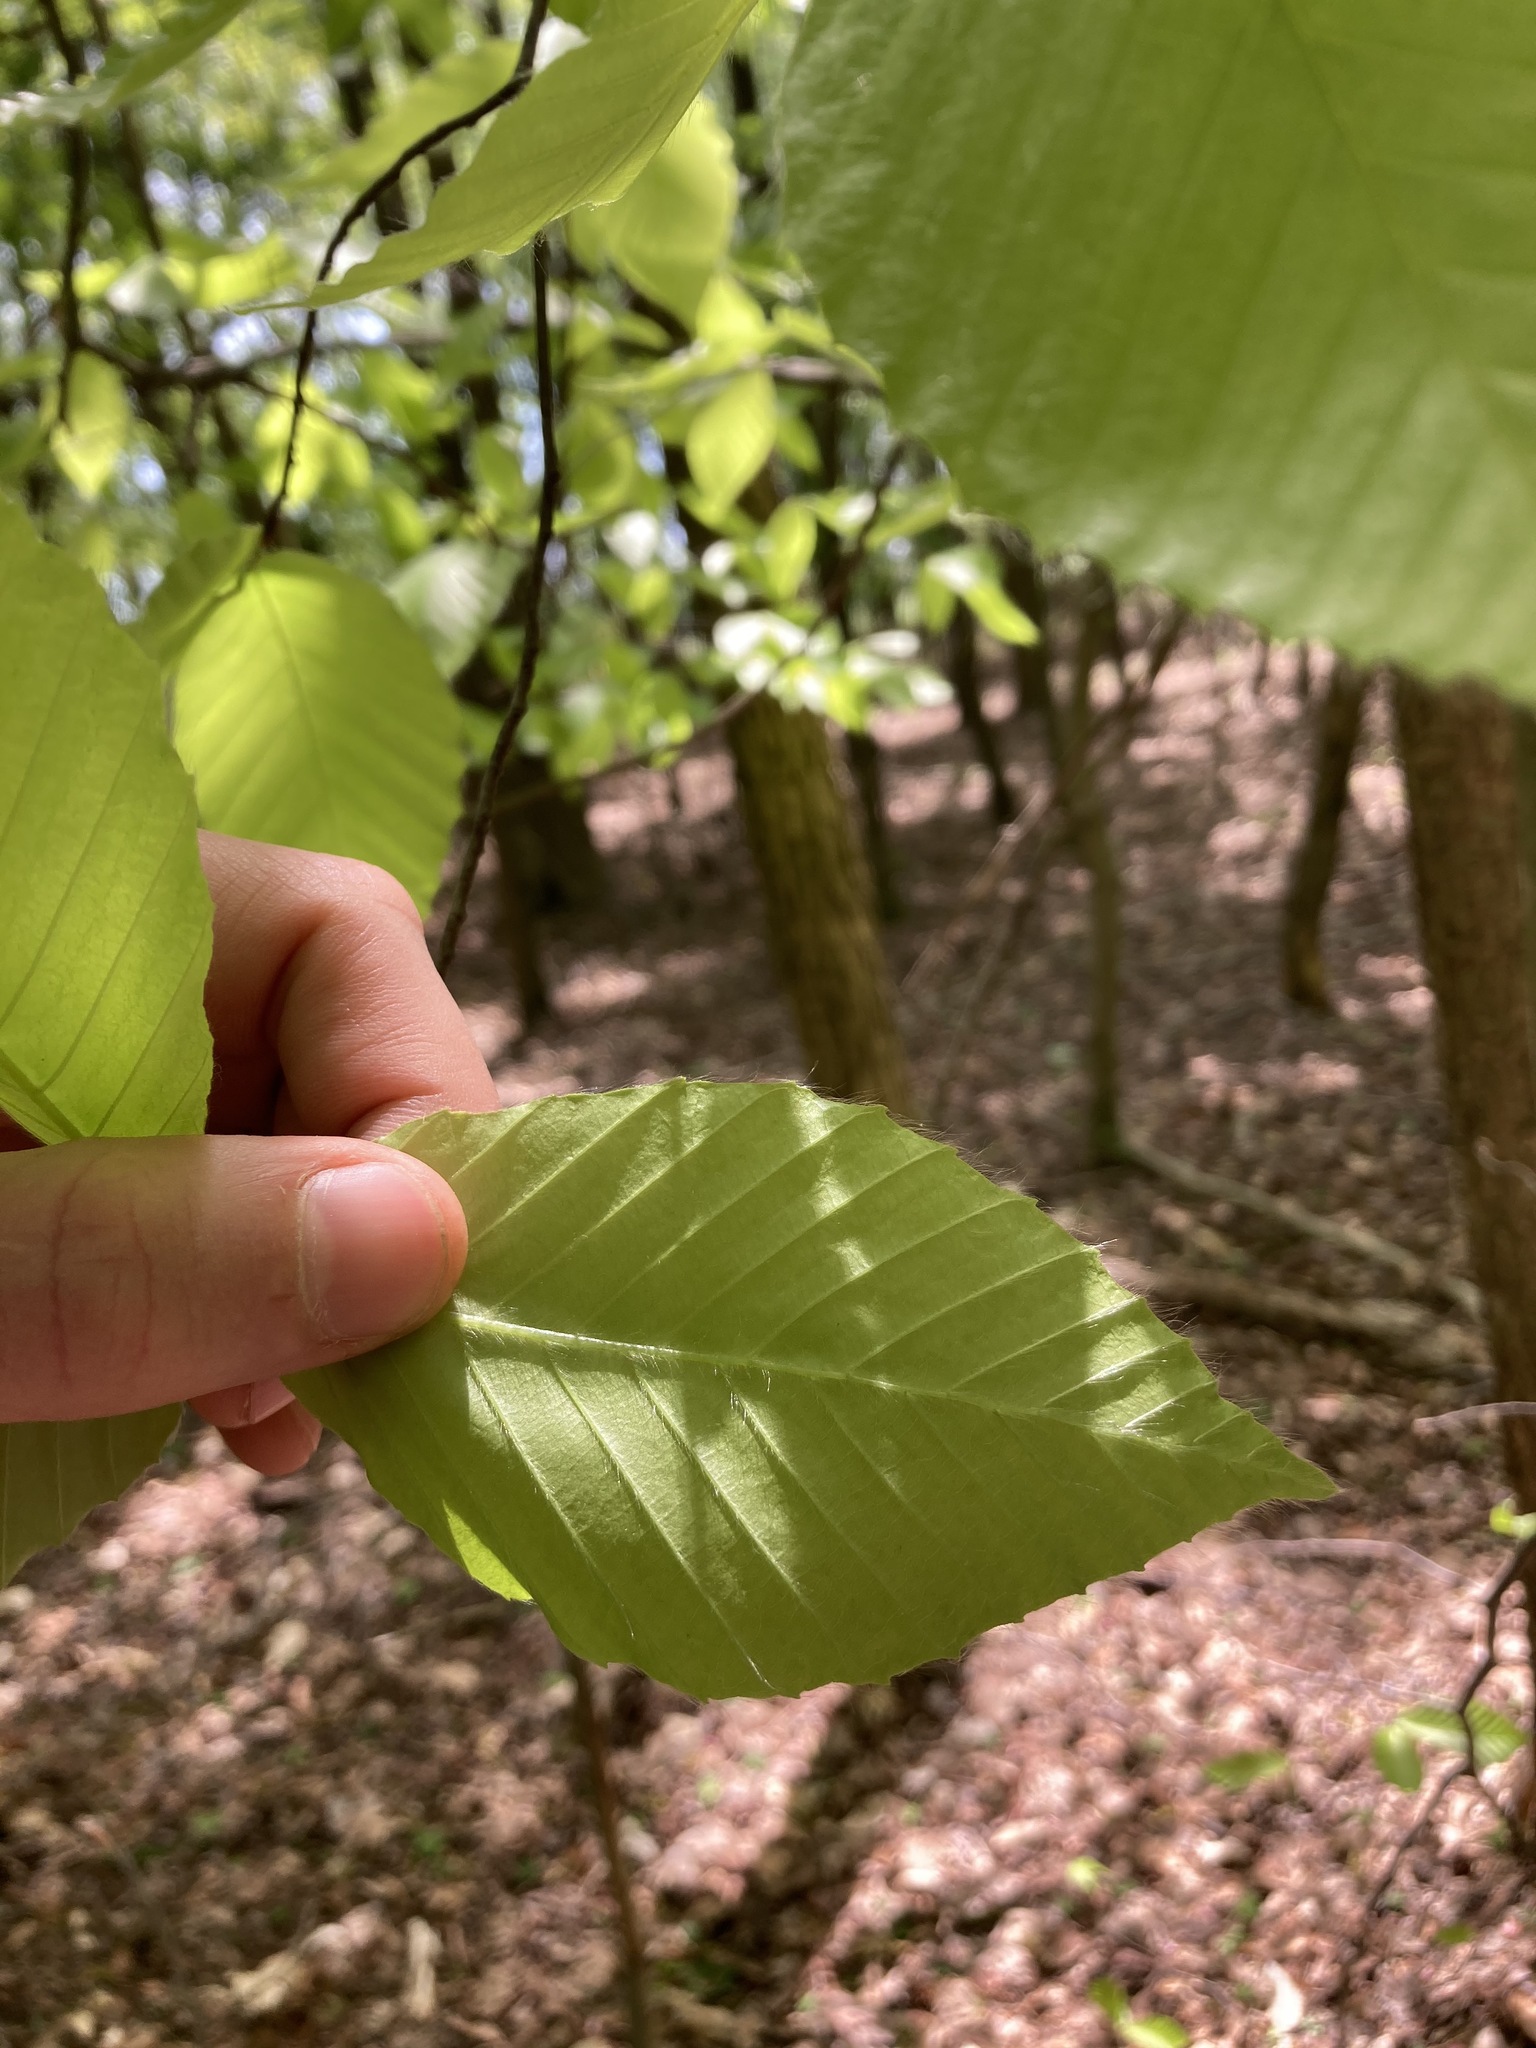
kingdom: Plantae
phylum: Tracheophyta
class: Magnoliopsida
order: Fagales
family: Fagaceae
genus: Fagus
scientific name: Fagus grandifolia
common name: American beech
